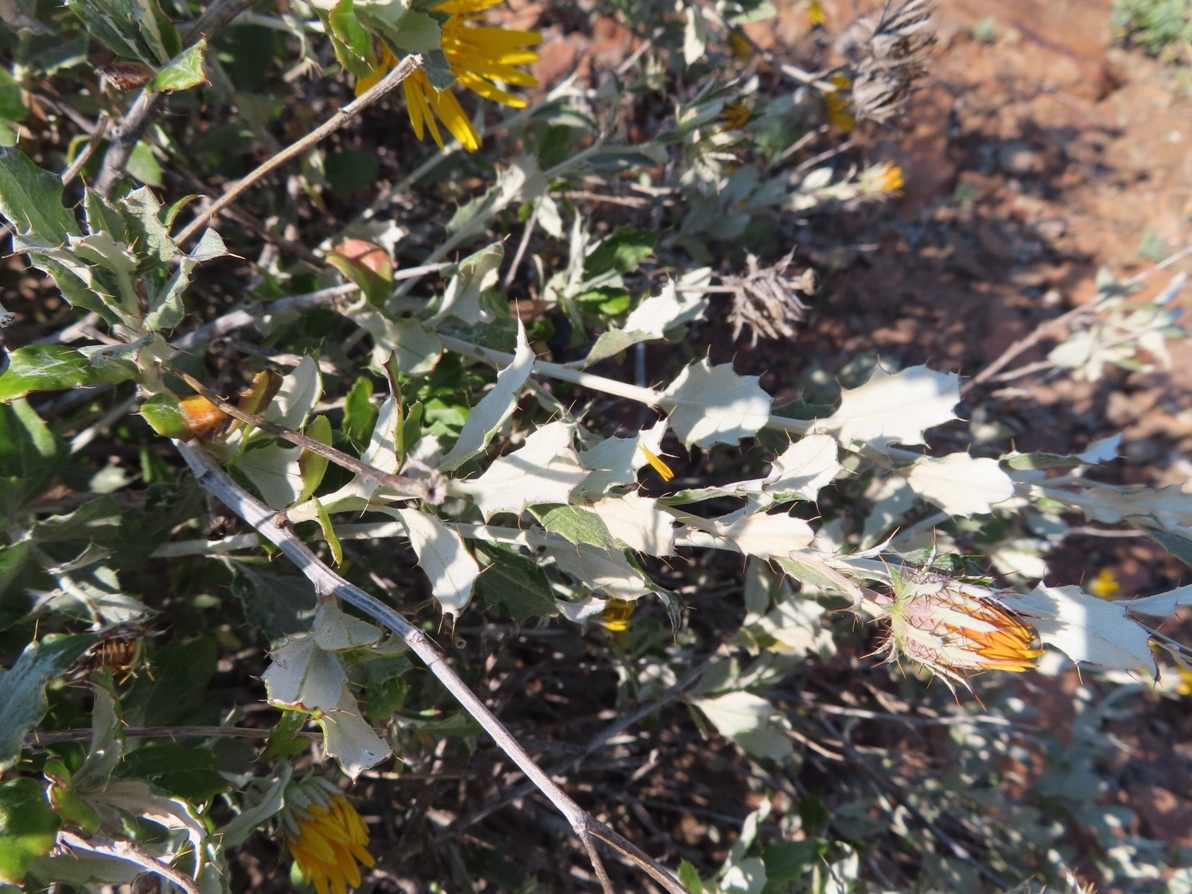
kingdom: Plantae
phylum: Tracheophyta
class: Magnoliopsida
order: Asterales
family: Asteraceae
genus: Berkheya
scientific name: Berkheya fruticosa
